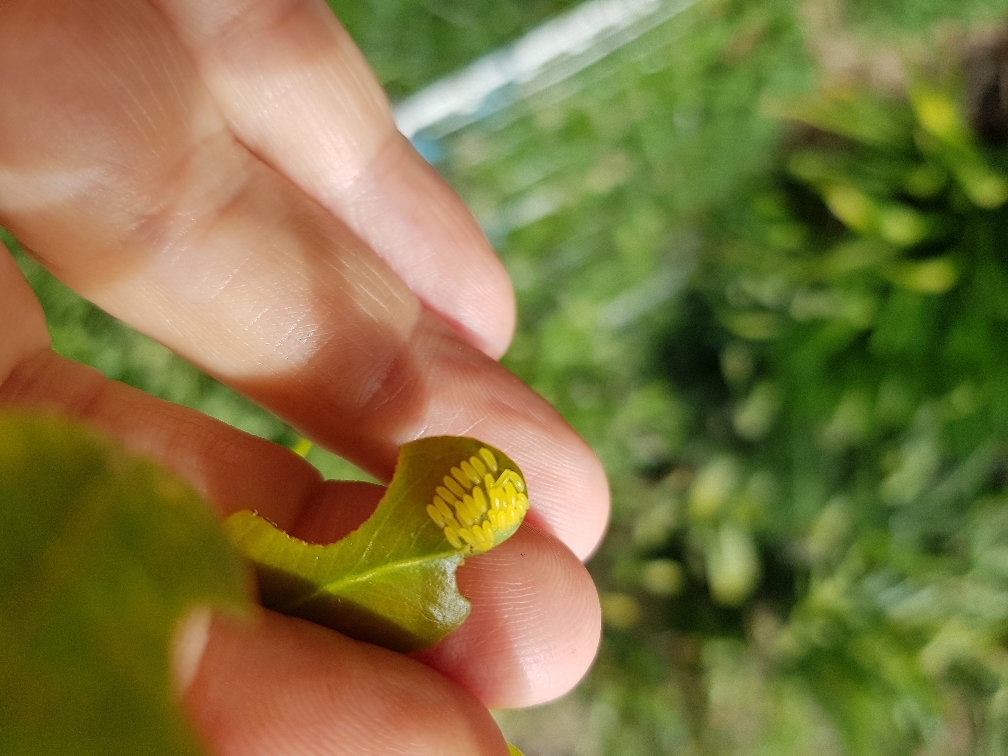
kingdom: Animalia
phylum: Arthropoda
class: Insecta
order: Coleoptera
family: Chrysomelidae
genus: Paropsisterna
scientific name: Paropsisterna cloelia
